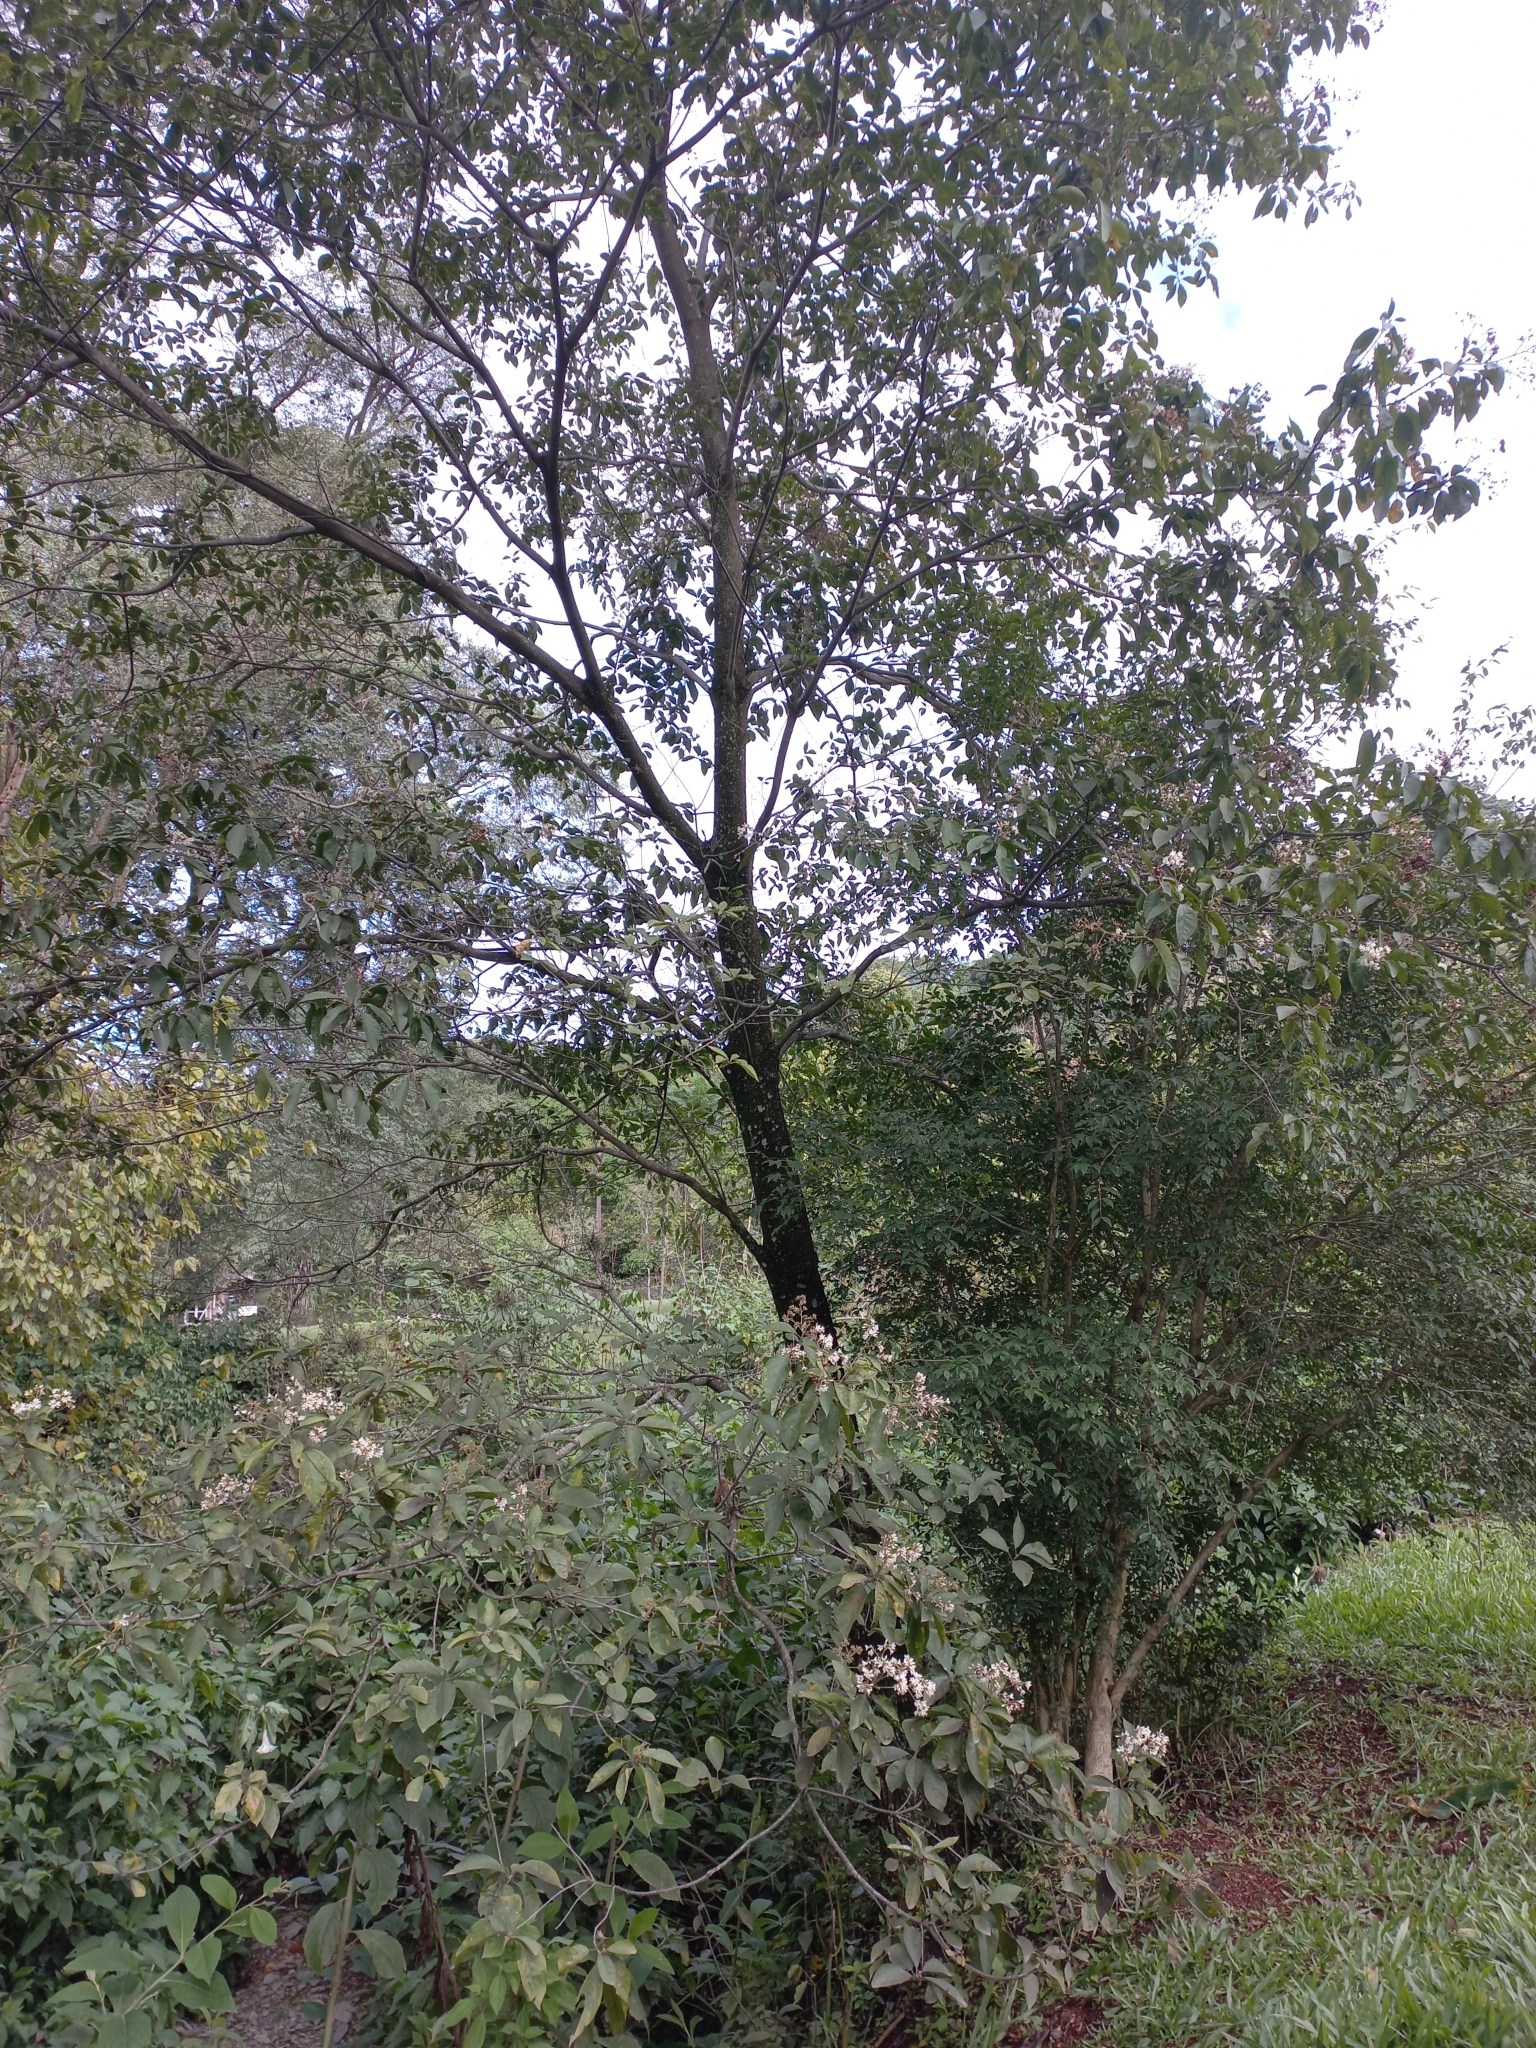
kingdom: Plantae
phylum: Tracheophyta
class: Magnoliopsida
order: Boraginales
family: Cordiaceae
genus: Cordia
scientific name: Cordia alliodora
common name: Spanish elm
